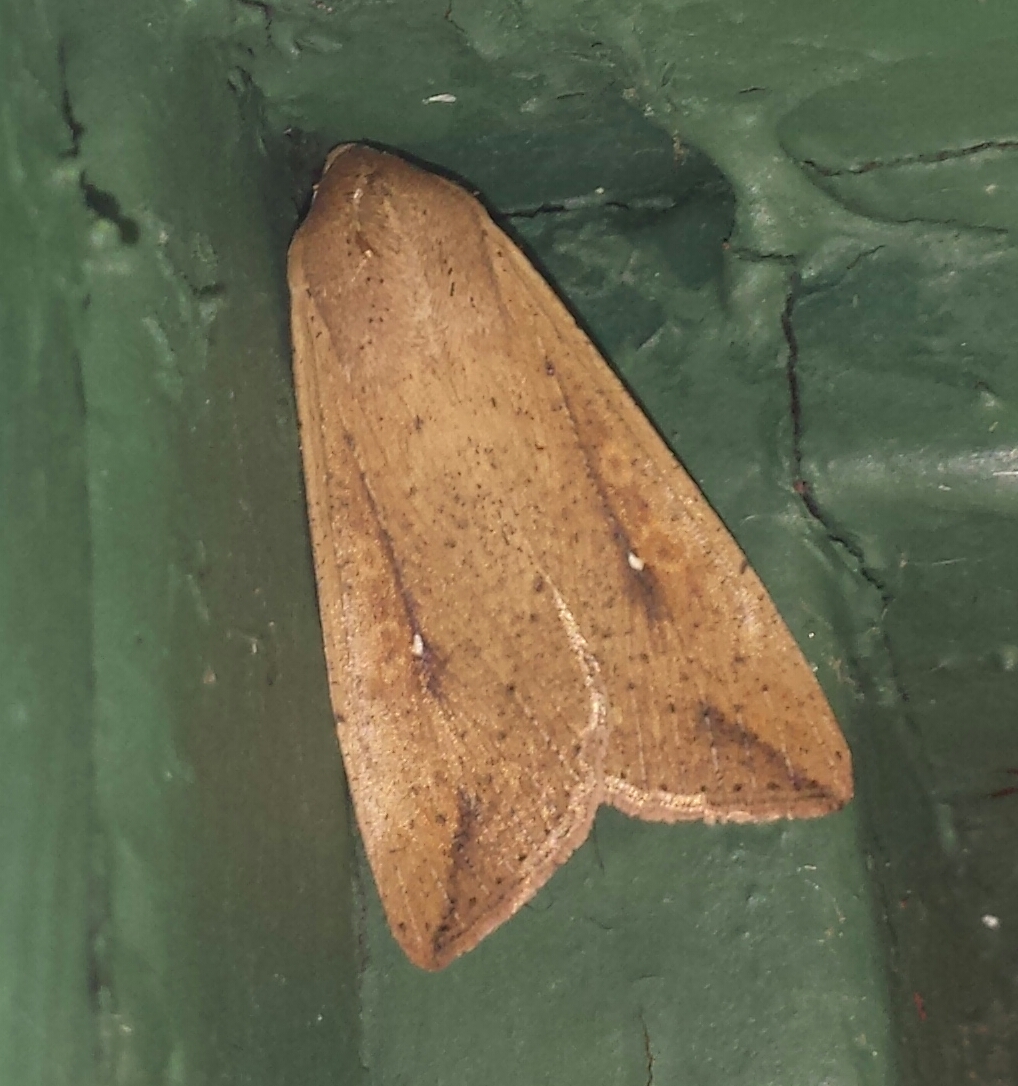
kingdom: Animalia
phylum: Arthropoda
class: Insecta
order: Lepidoptera
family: Noctuidae
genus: Mythimna
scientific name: Mythimna unipuncta
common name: White-speck
